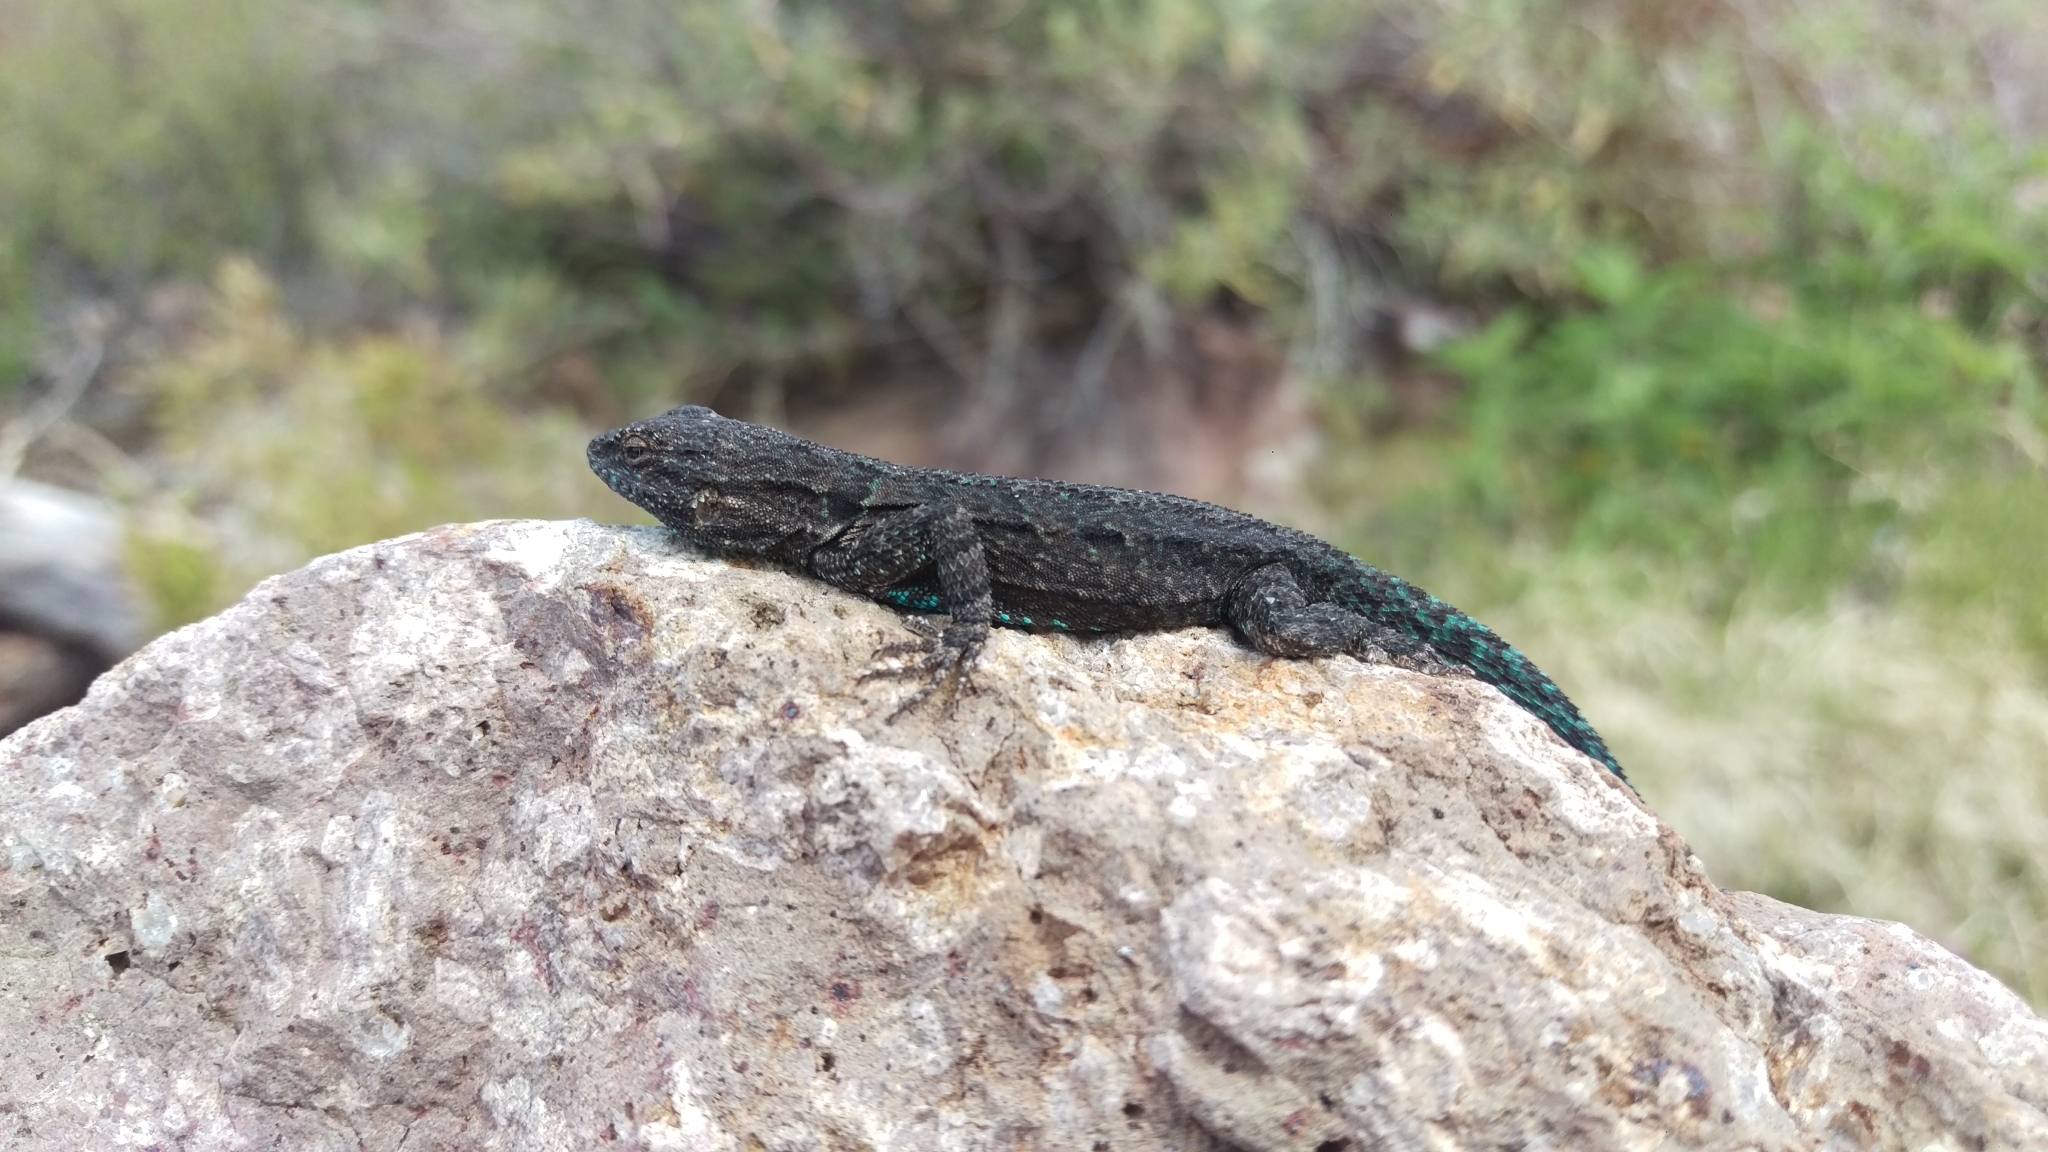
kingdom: Animalia
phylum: Chordata
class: Squamata
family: Phrynosomatidae
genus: Urosaurus
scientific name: Urosaurus ornatus
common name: Ornate tree lizard
